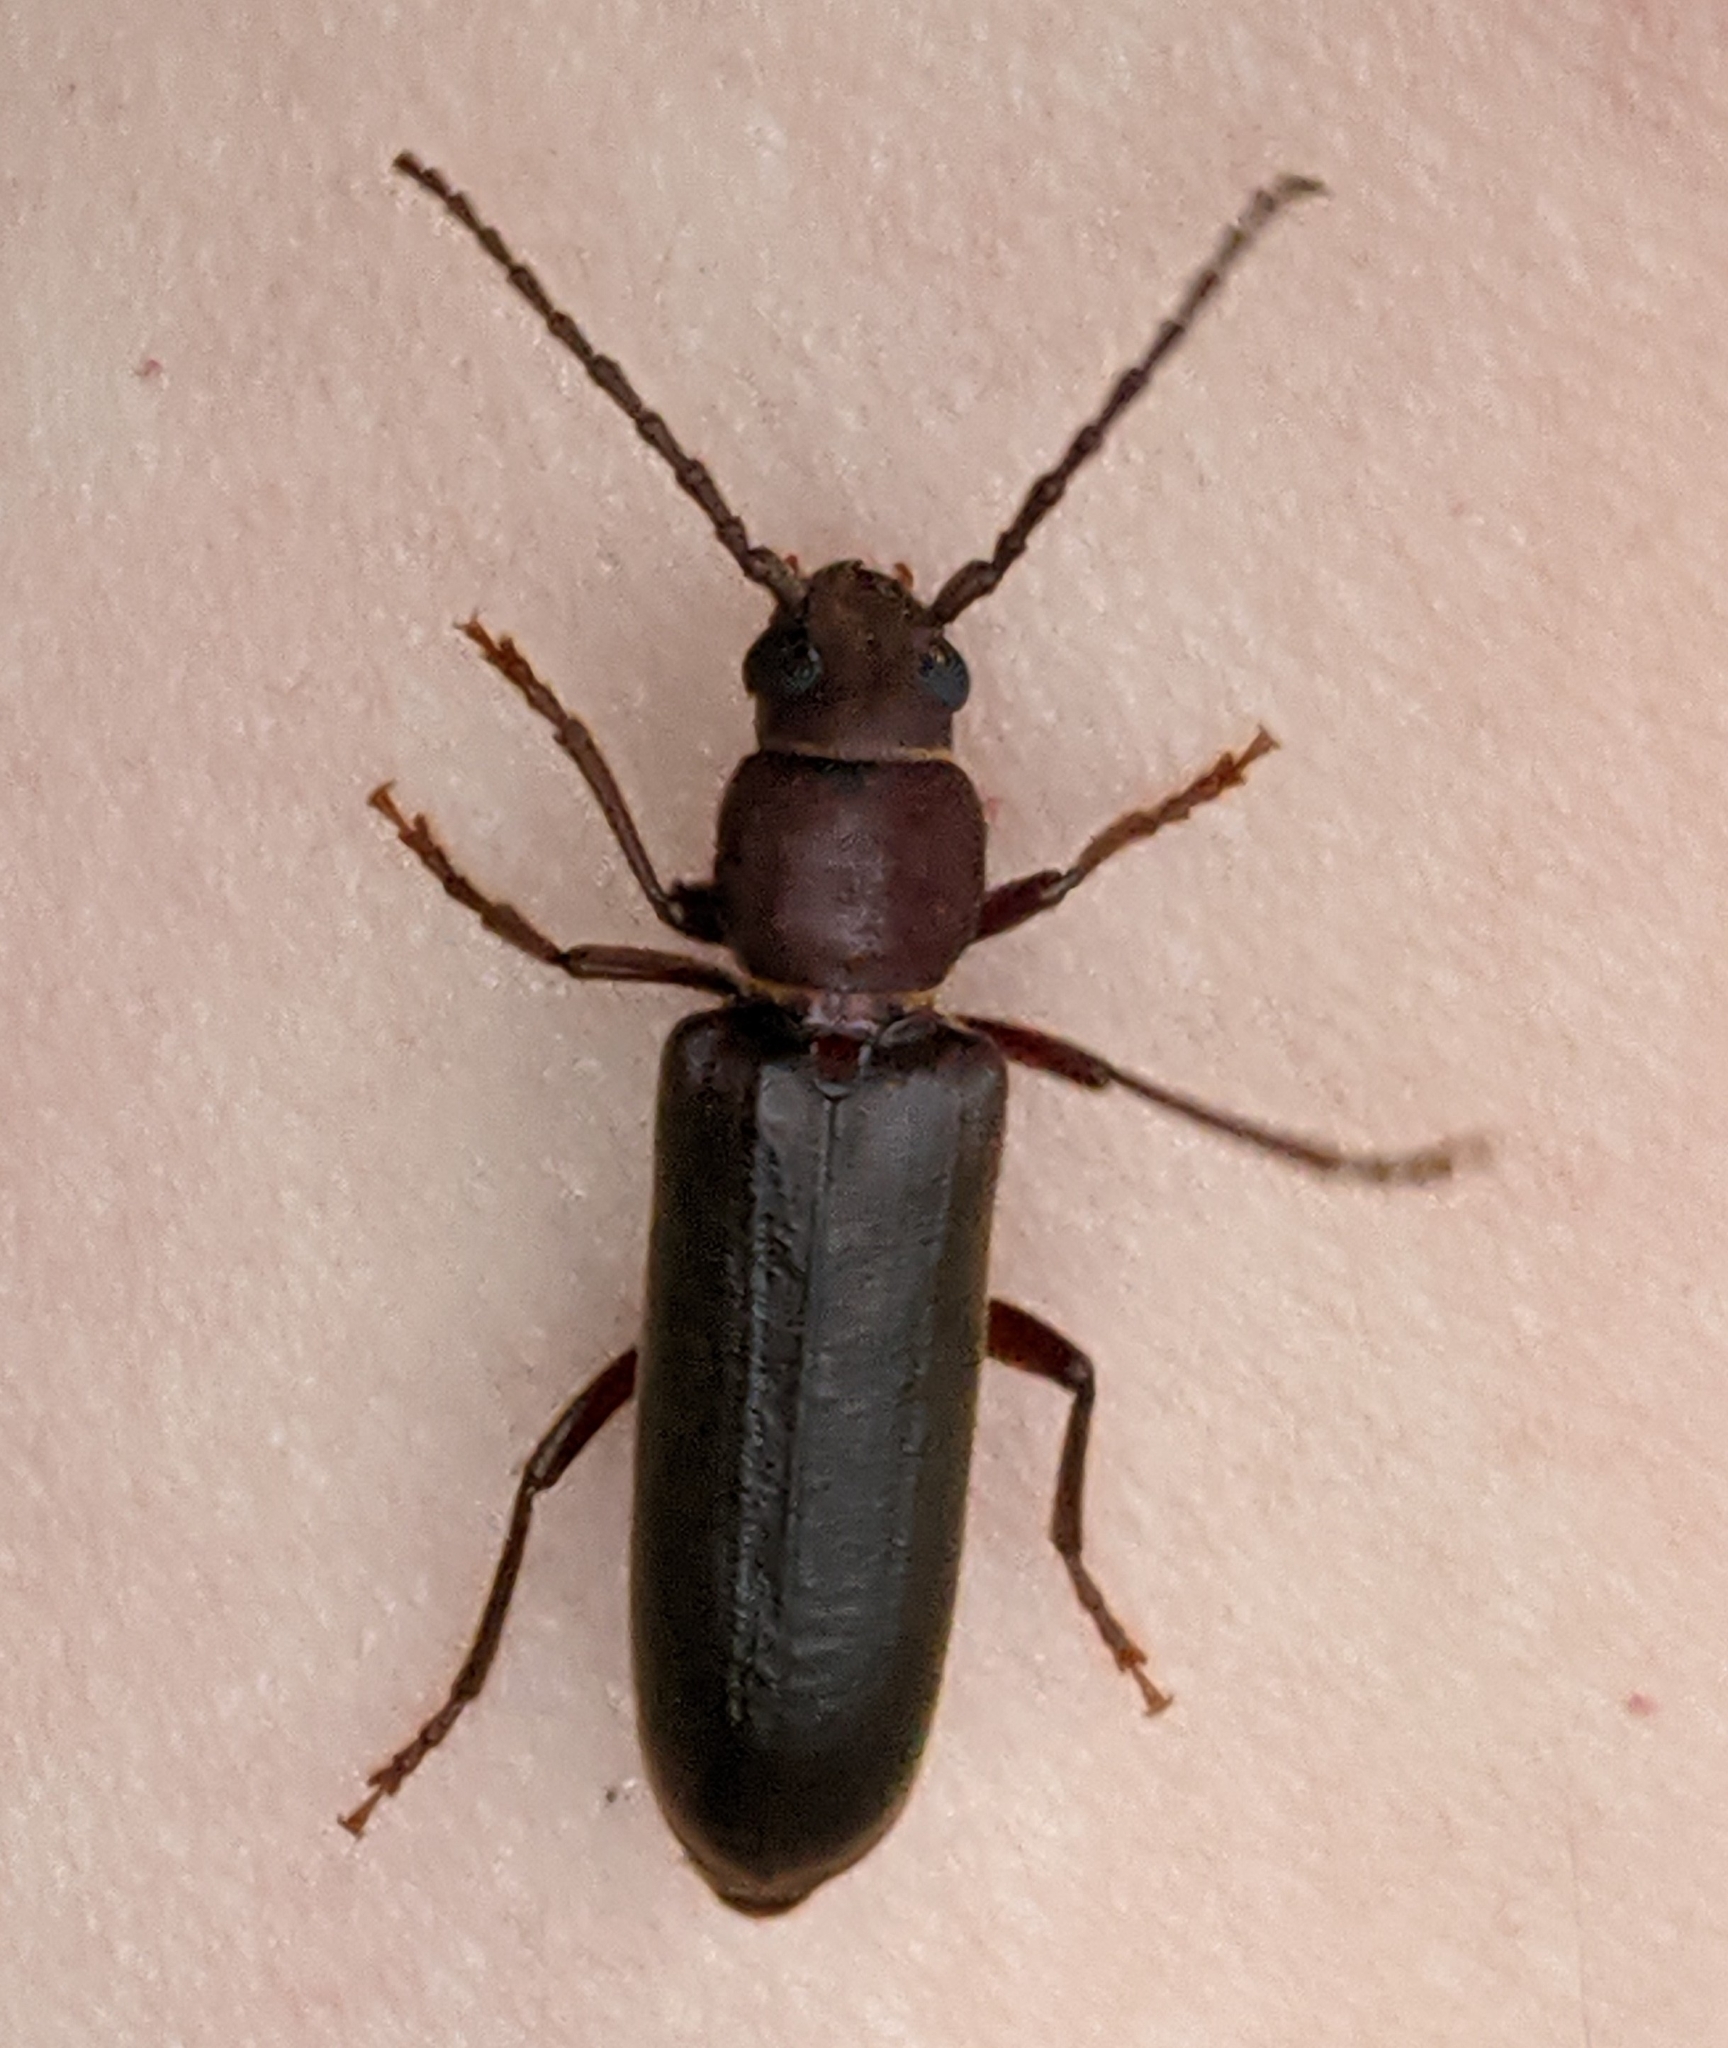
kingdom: Animalia
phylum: Arthropoda
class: Insecta
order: Coleoptera
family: Cerambycidae
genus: Megasemum
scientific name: Megasemum asperum
